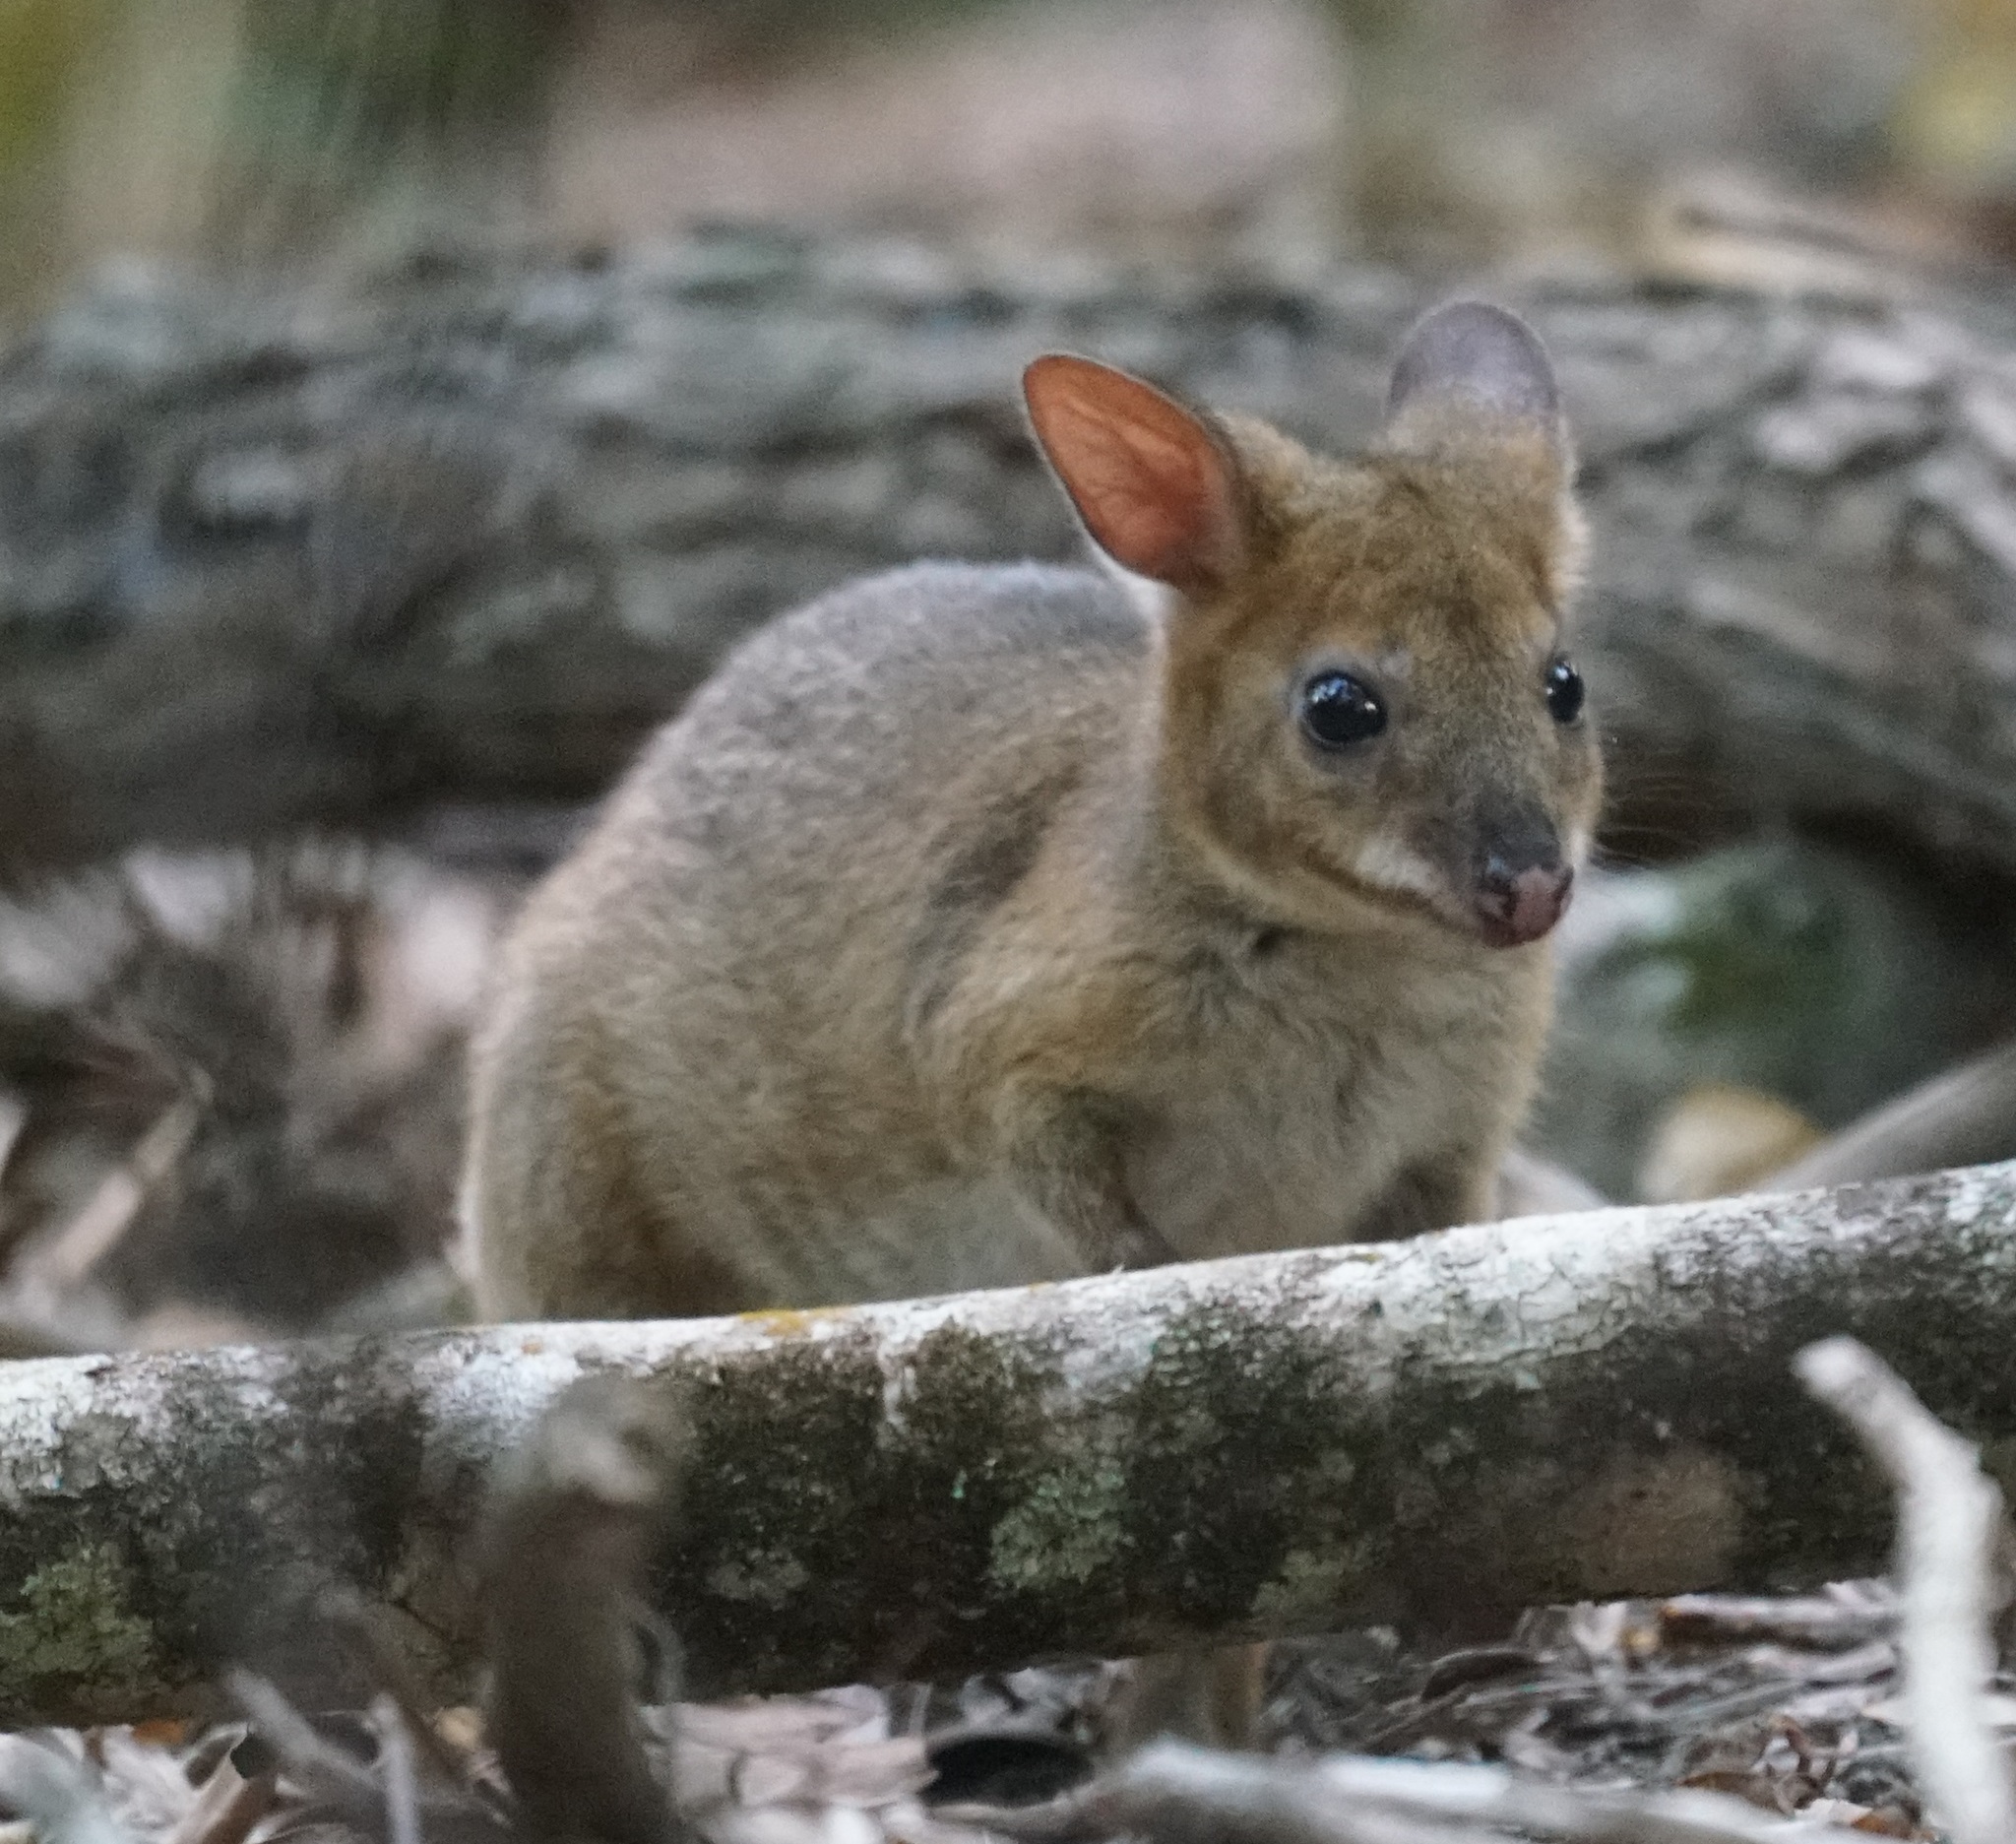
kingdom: Animalia
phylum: Chordata
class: Mammalia
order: Diprotodontia
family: Macropodidae
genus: Thylogale
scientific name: Thylogale stigmatica
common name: Red-legged pademelon
